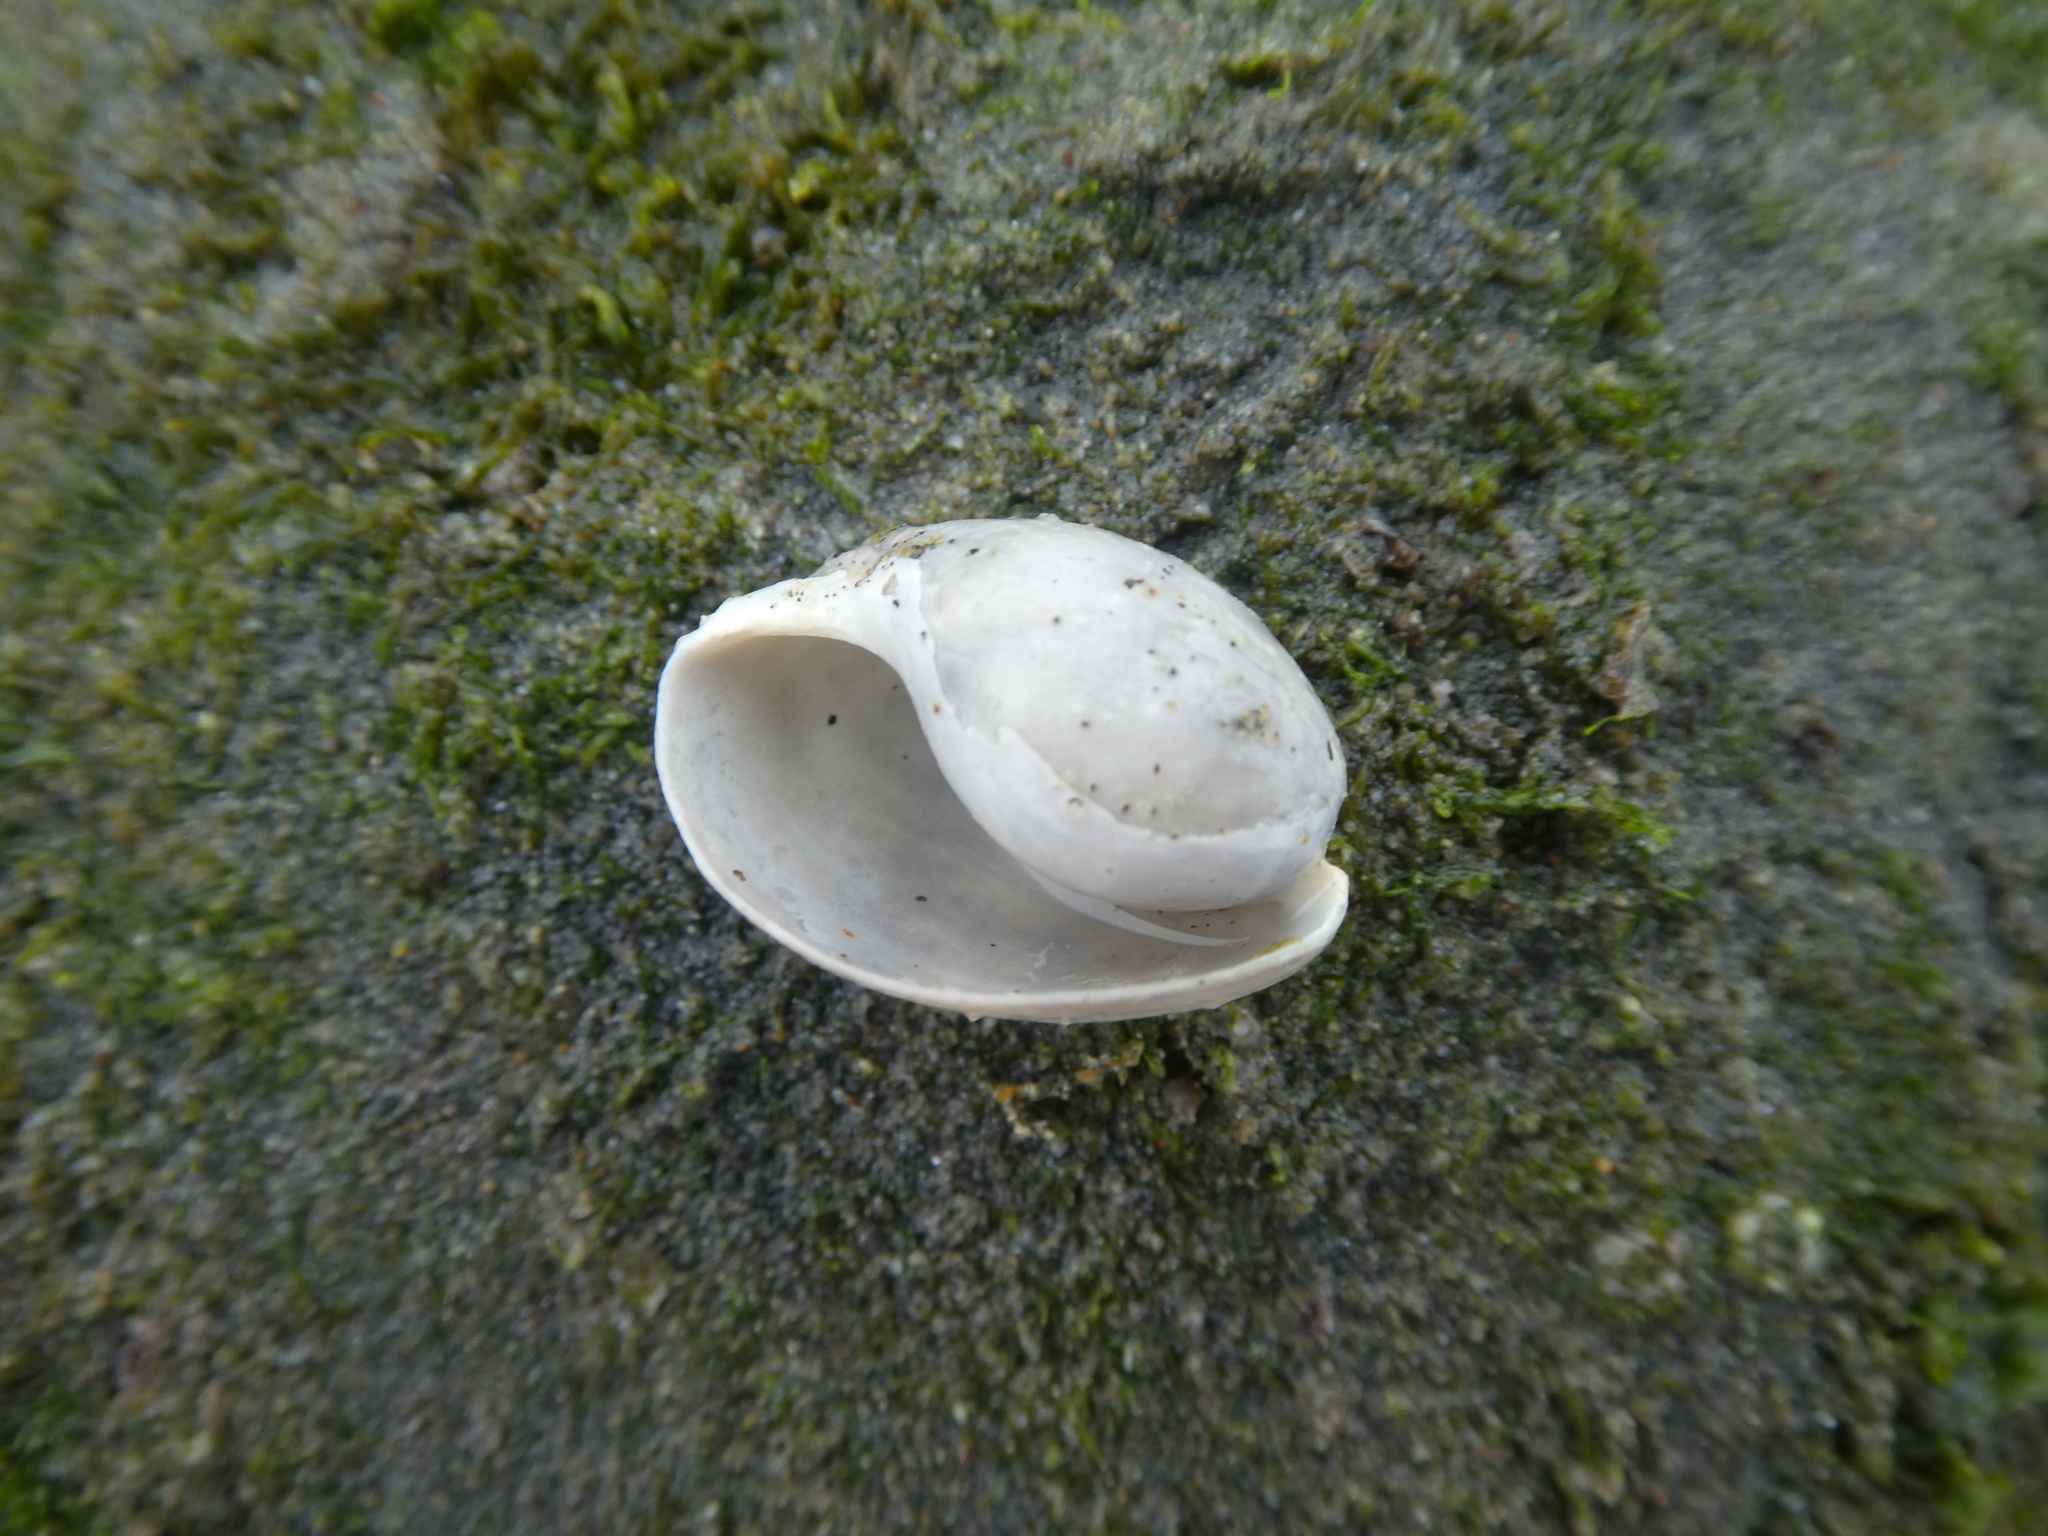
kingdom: Animalia
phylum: Mollusca
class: Gastropoda
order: Cephalaspidea
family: Bullidae
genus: Bulla
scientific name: Bulla gouldiana
